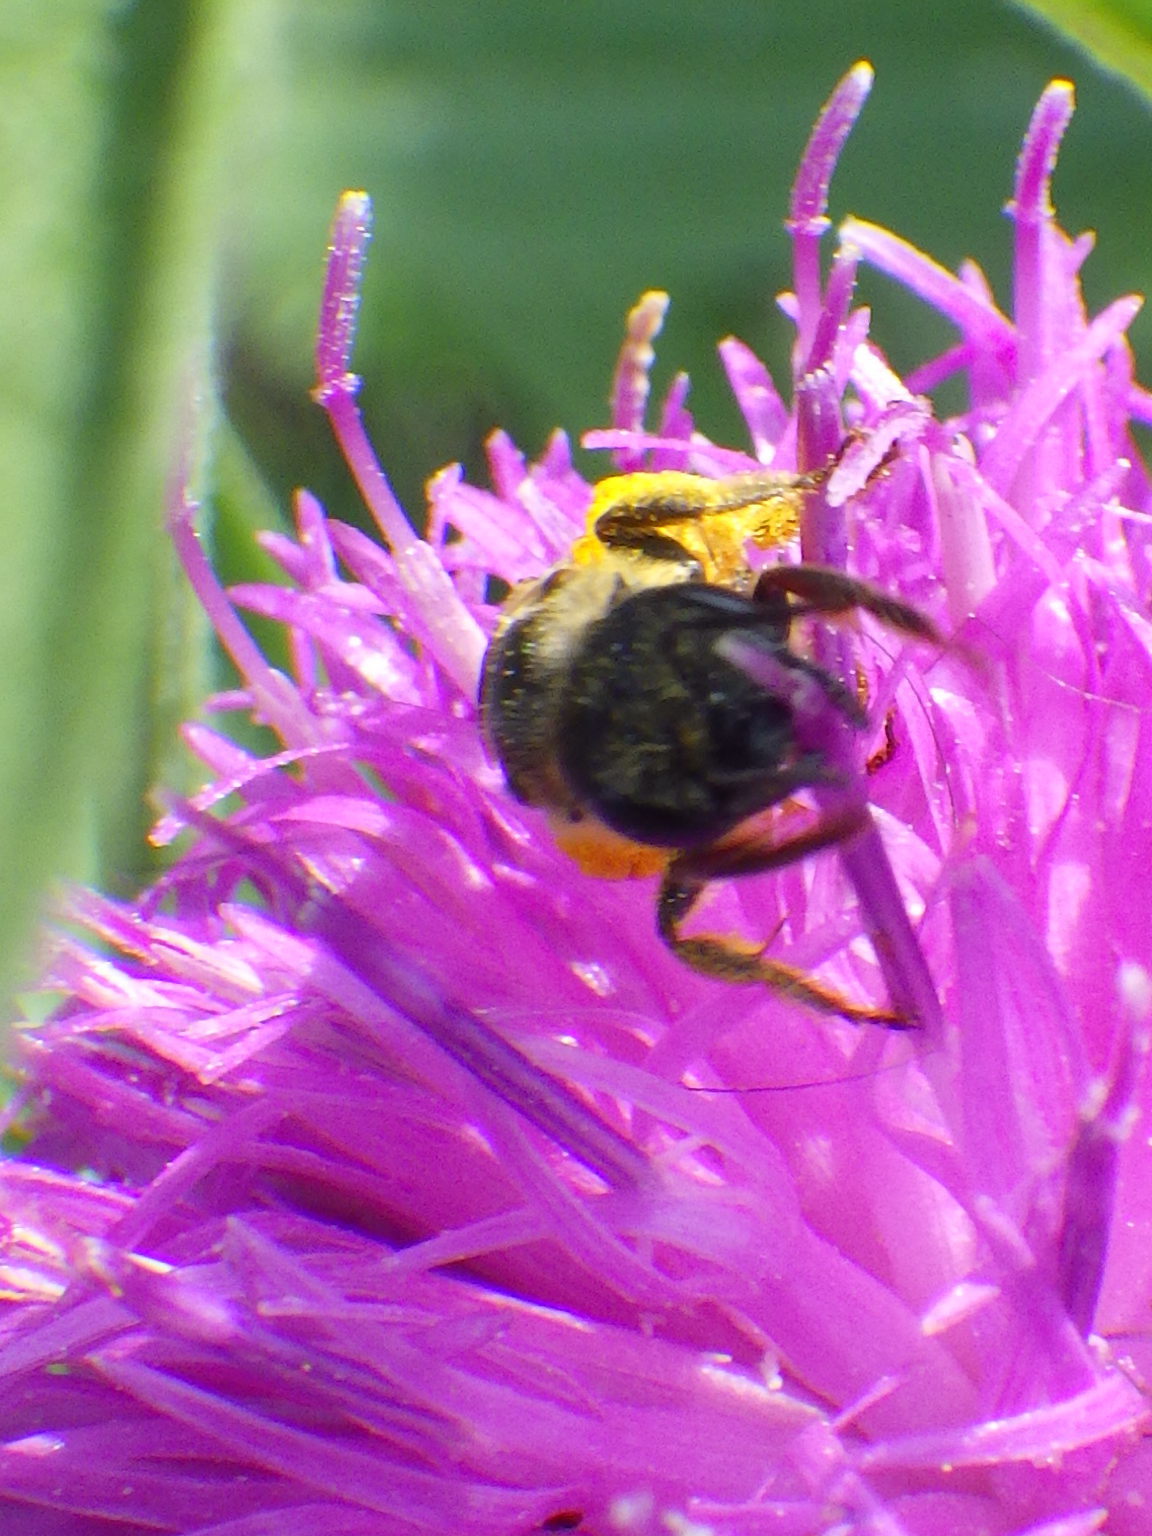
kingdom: Animalia
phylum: Arthropoda
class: Insecta
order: Hymenoptera
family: Halictidae
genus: Halictus
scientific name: Halictus ligatus
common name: Ligated furrow bee
